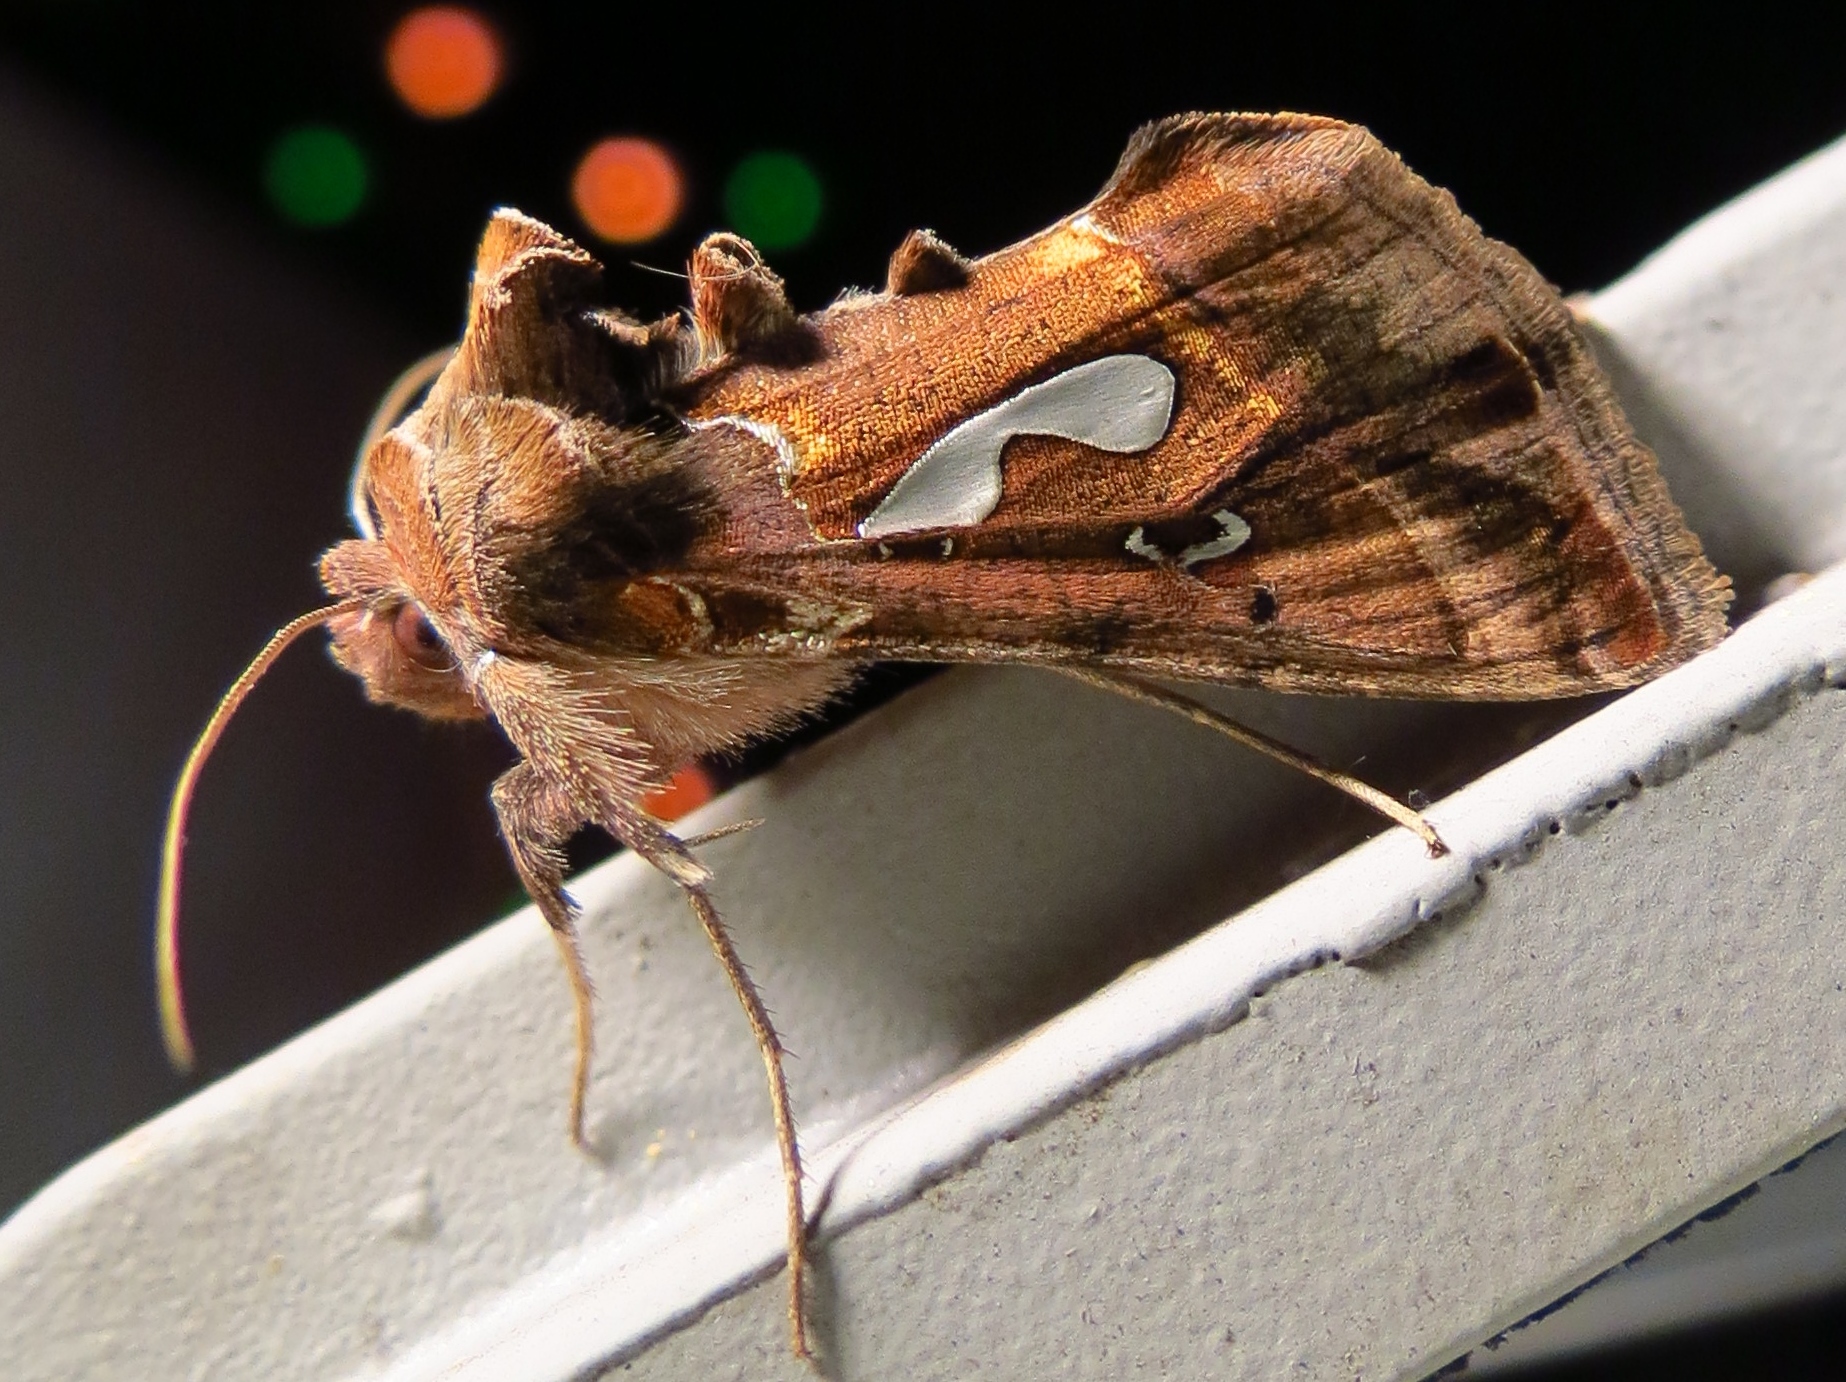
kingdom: Animalia
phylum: Arthropoda
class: Insecta
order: Lepidoptera
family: Noctuidae
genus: Megalographa
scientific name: Megalographa biloba
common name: Cutworm
